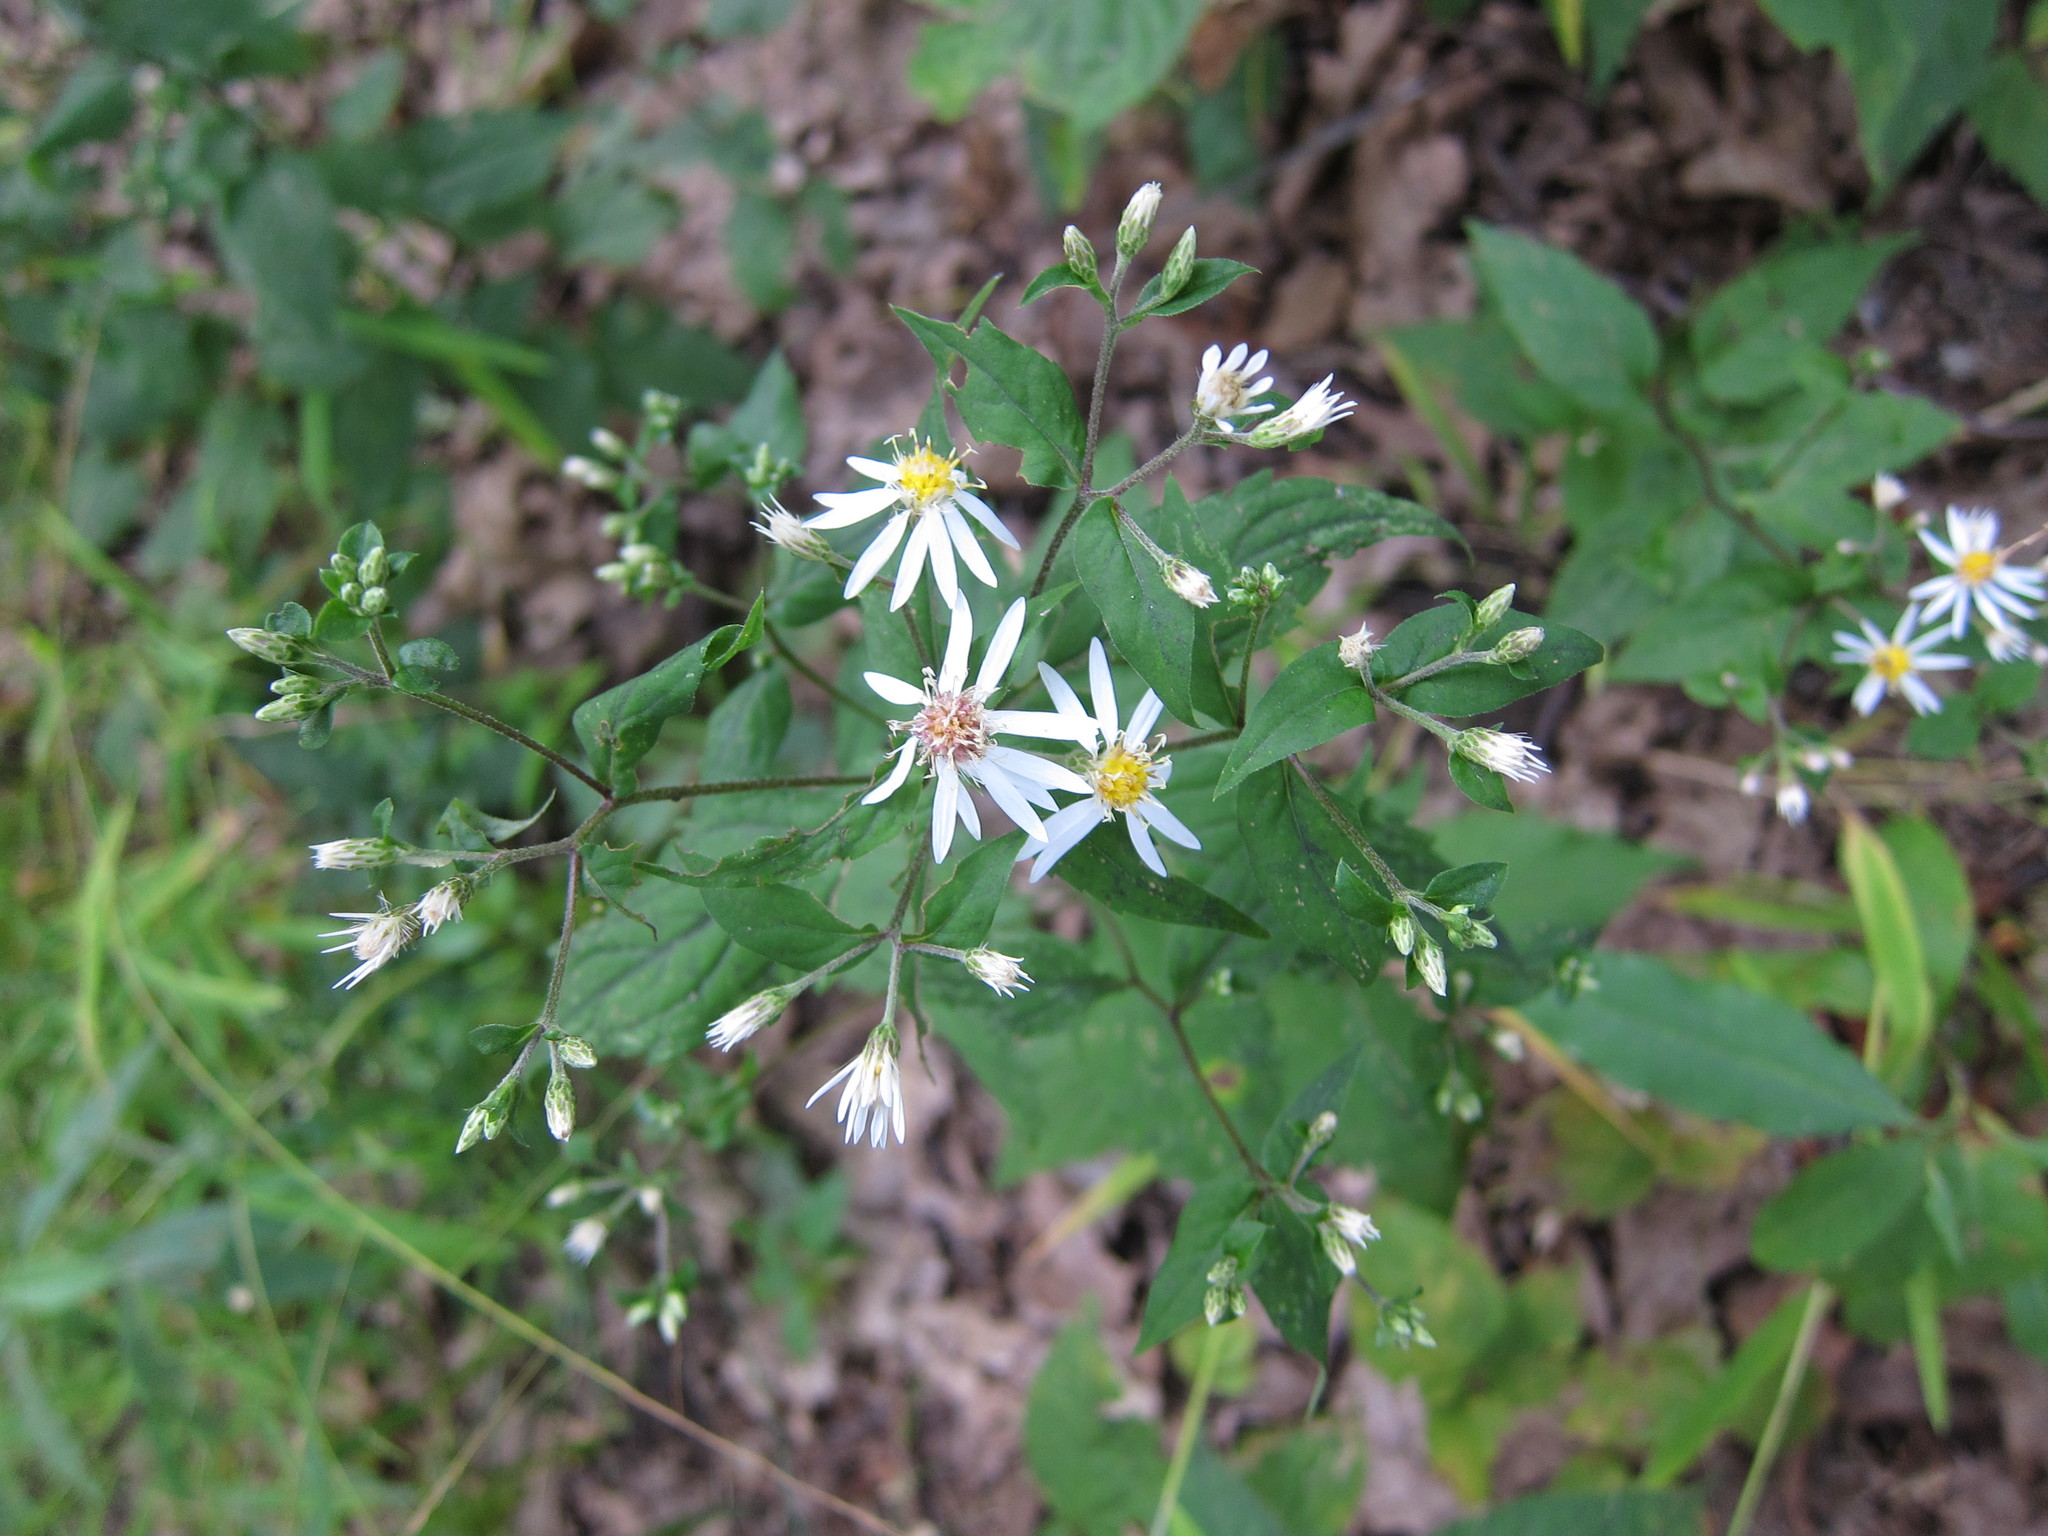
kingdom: Plantae
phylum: Tracheophyta
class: Magnoliopsida
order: Asterales
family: Asteraceae
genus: Eurybia
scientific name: Eurybia divaricata
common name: White wood aster
